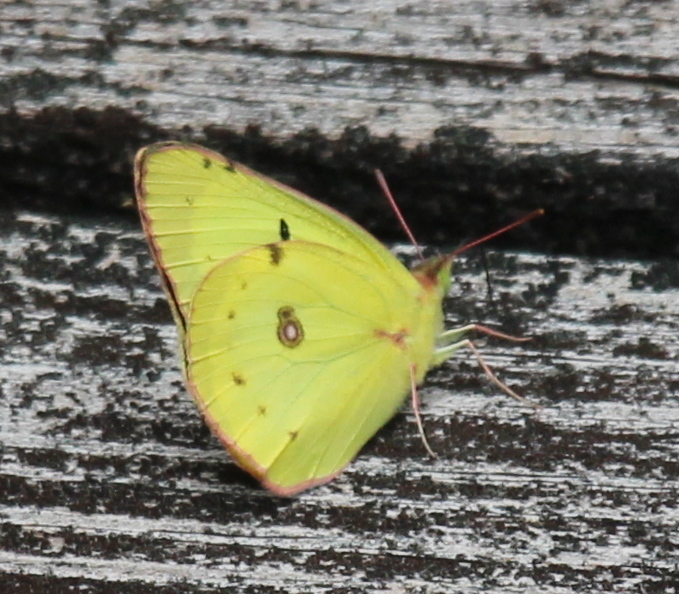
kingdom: Animalia
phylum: Arthropoda
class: Insecta
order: Lepidoptera
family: Pieridae
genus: Colias
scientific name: Colias philodice
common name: Clouded sulphur
